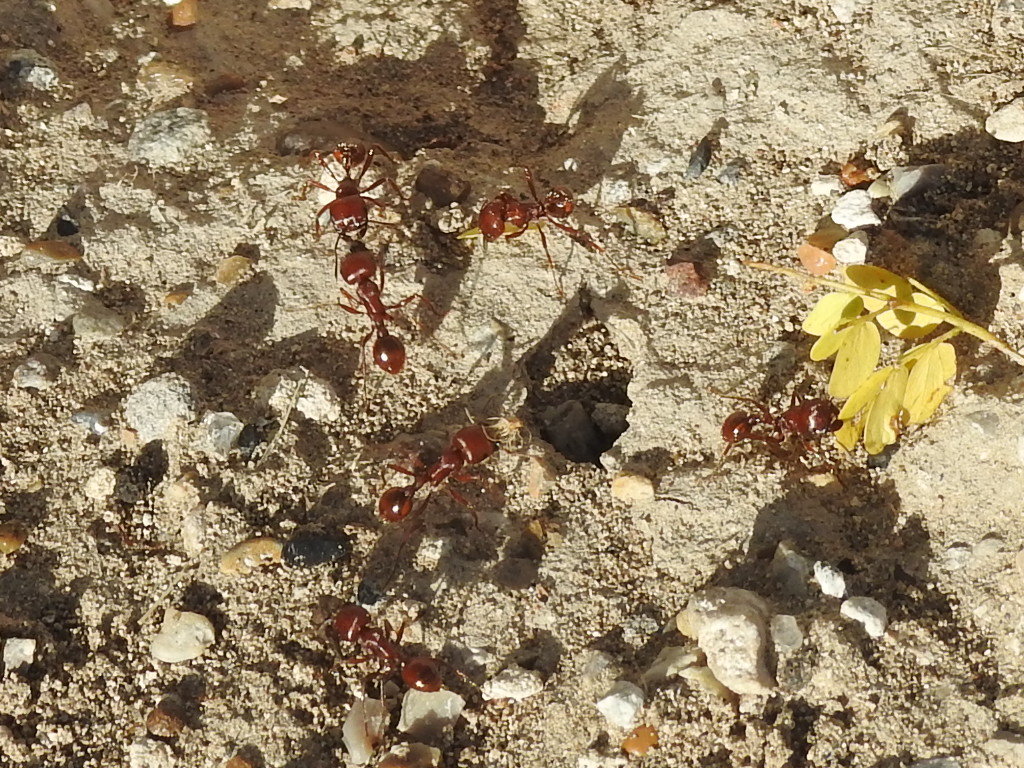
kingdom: Animalia
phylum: Arthropoda
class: Insecta
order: Hymenoptera
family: Formicidae
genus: Pogonomyrmex
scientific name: Pogonomyrmex barbatus
